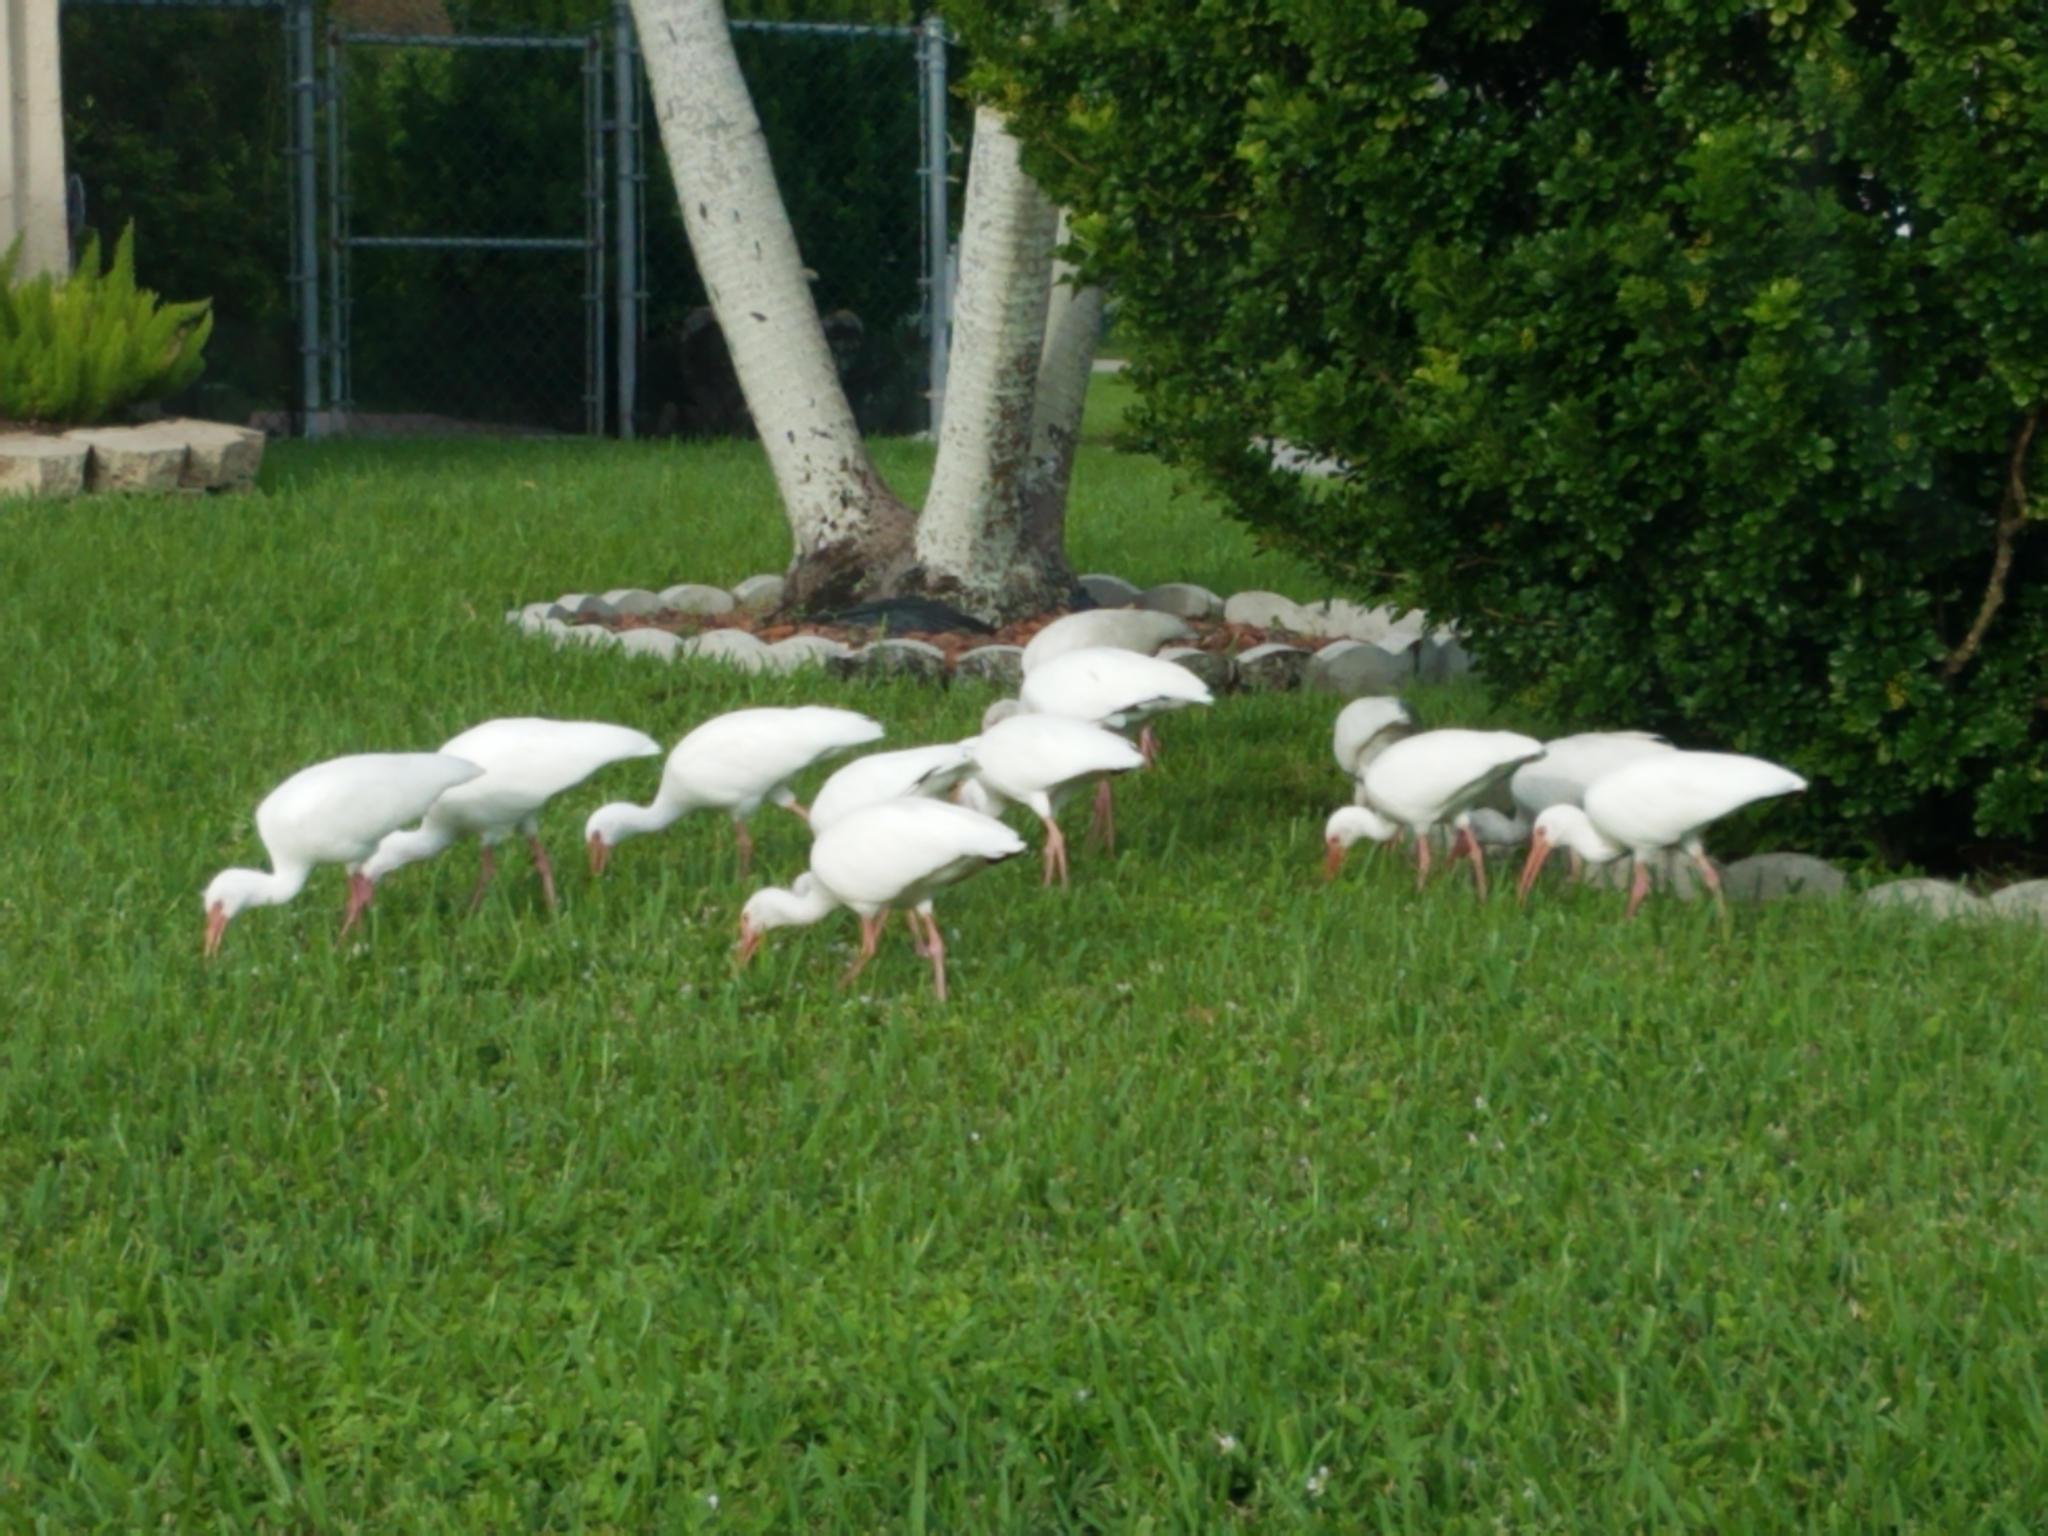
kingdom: Animalia
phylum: Chordata
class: Aves
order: Pelecaniformes
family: Threskiornithidae
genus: Eudocimus
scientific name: Eudocimus albus
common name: White ibis
